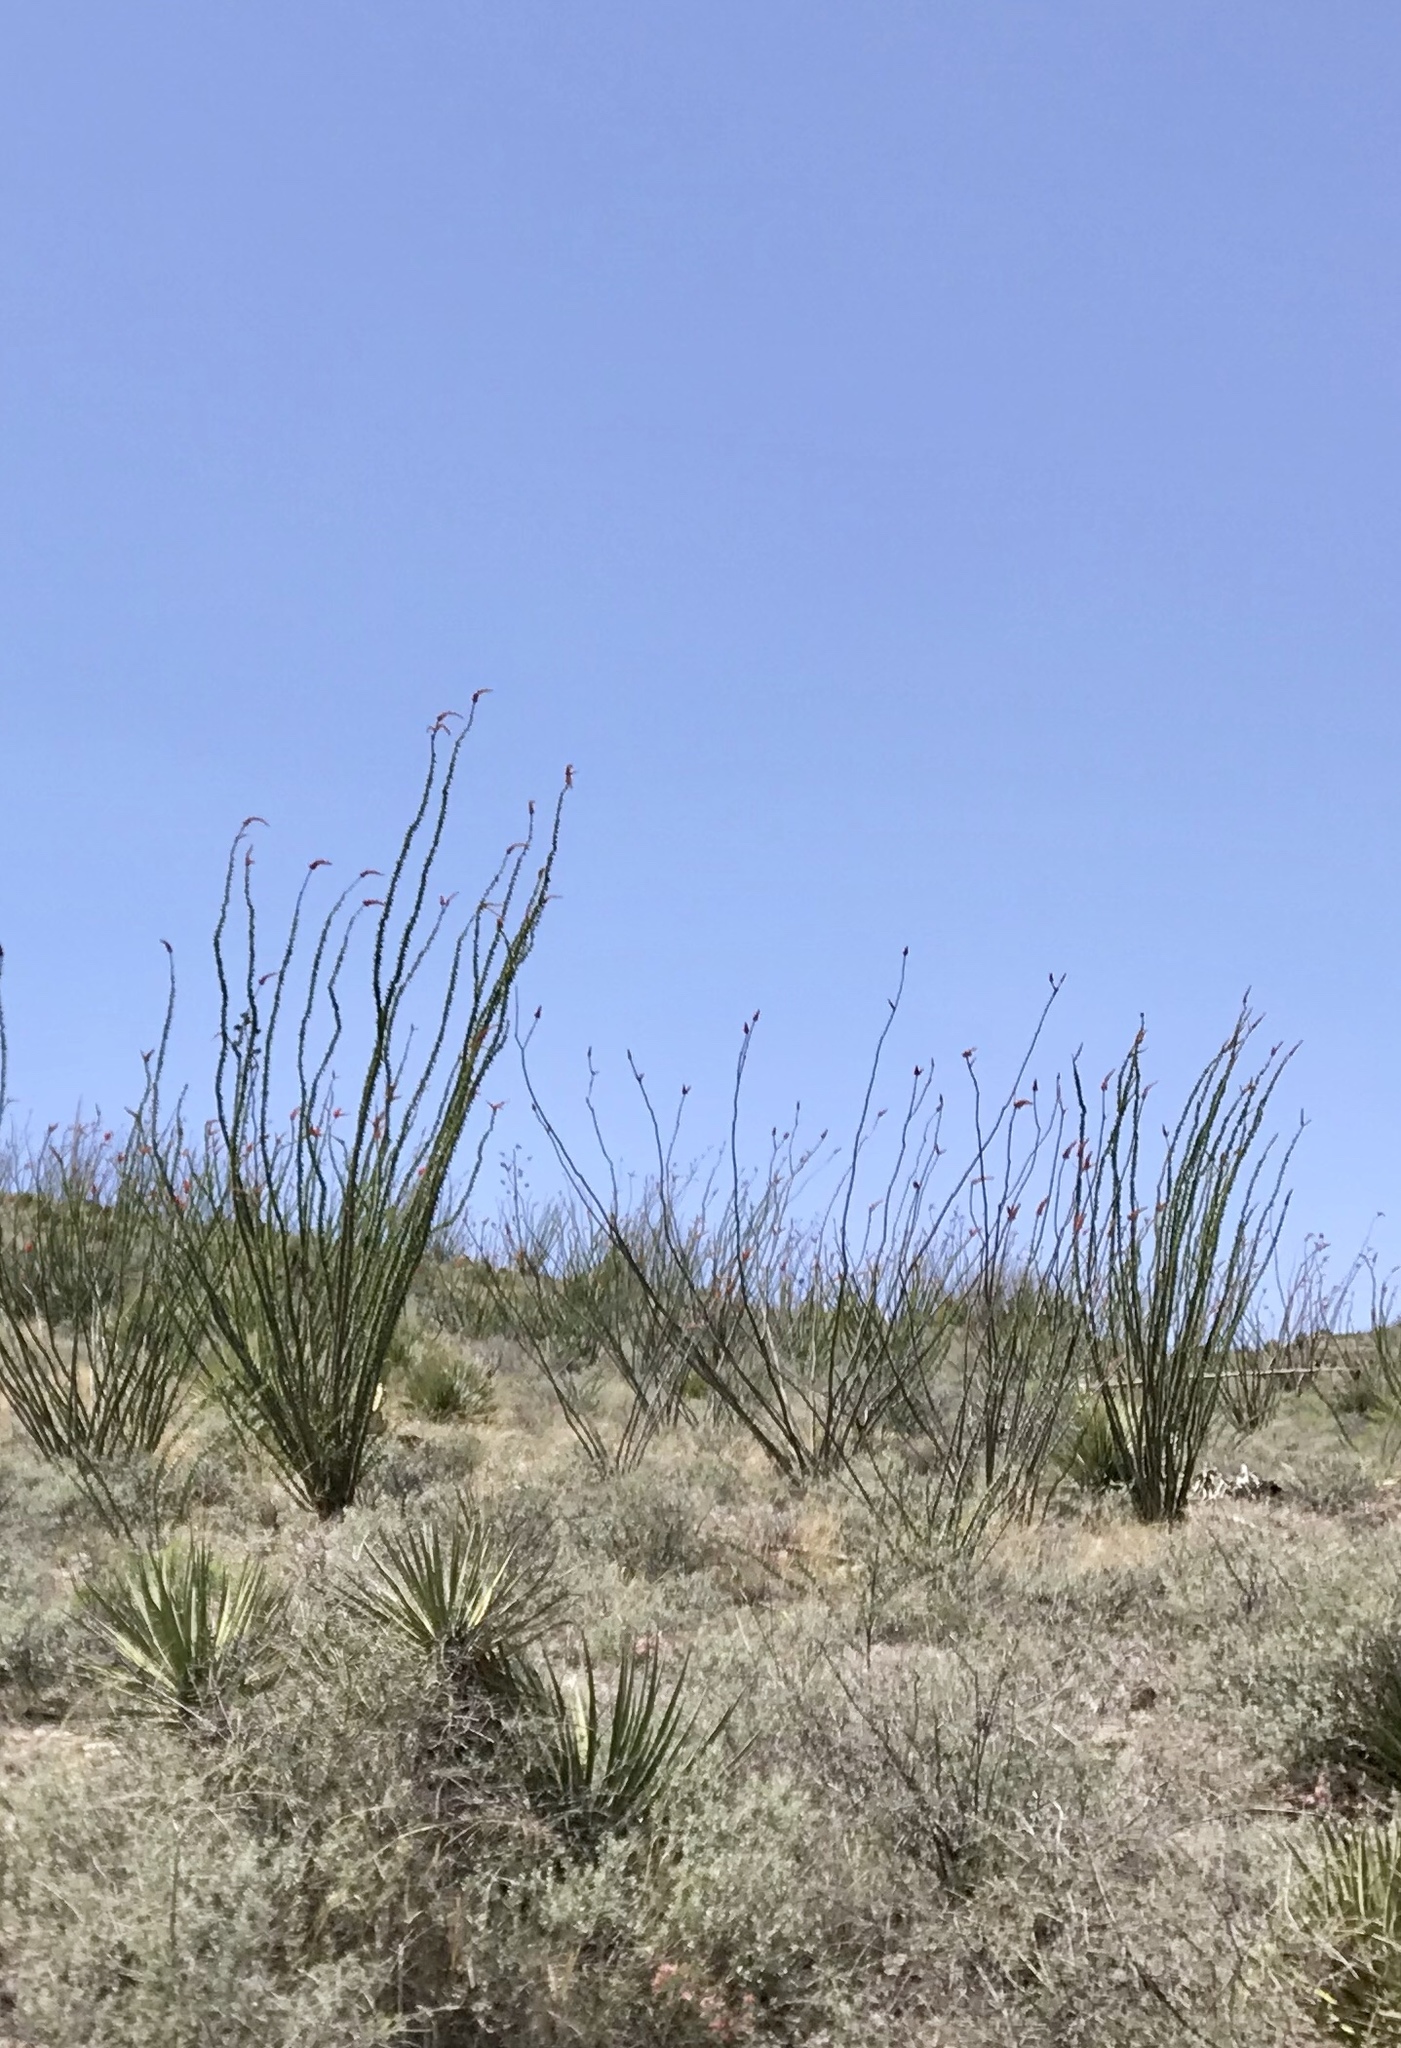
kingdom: Plantae
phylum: Tracheophyta
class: Magnoliopsida
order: Ericales
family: Fouquieriaceae
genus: Fouquieria
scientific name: Fouquieria splendens
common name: Vine-cactus
